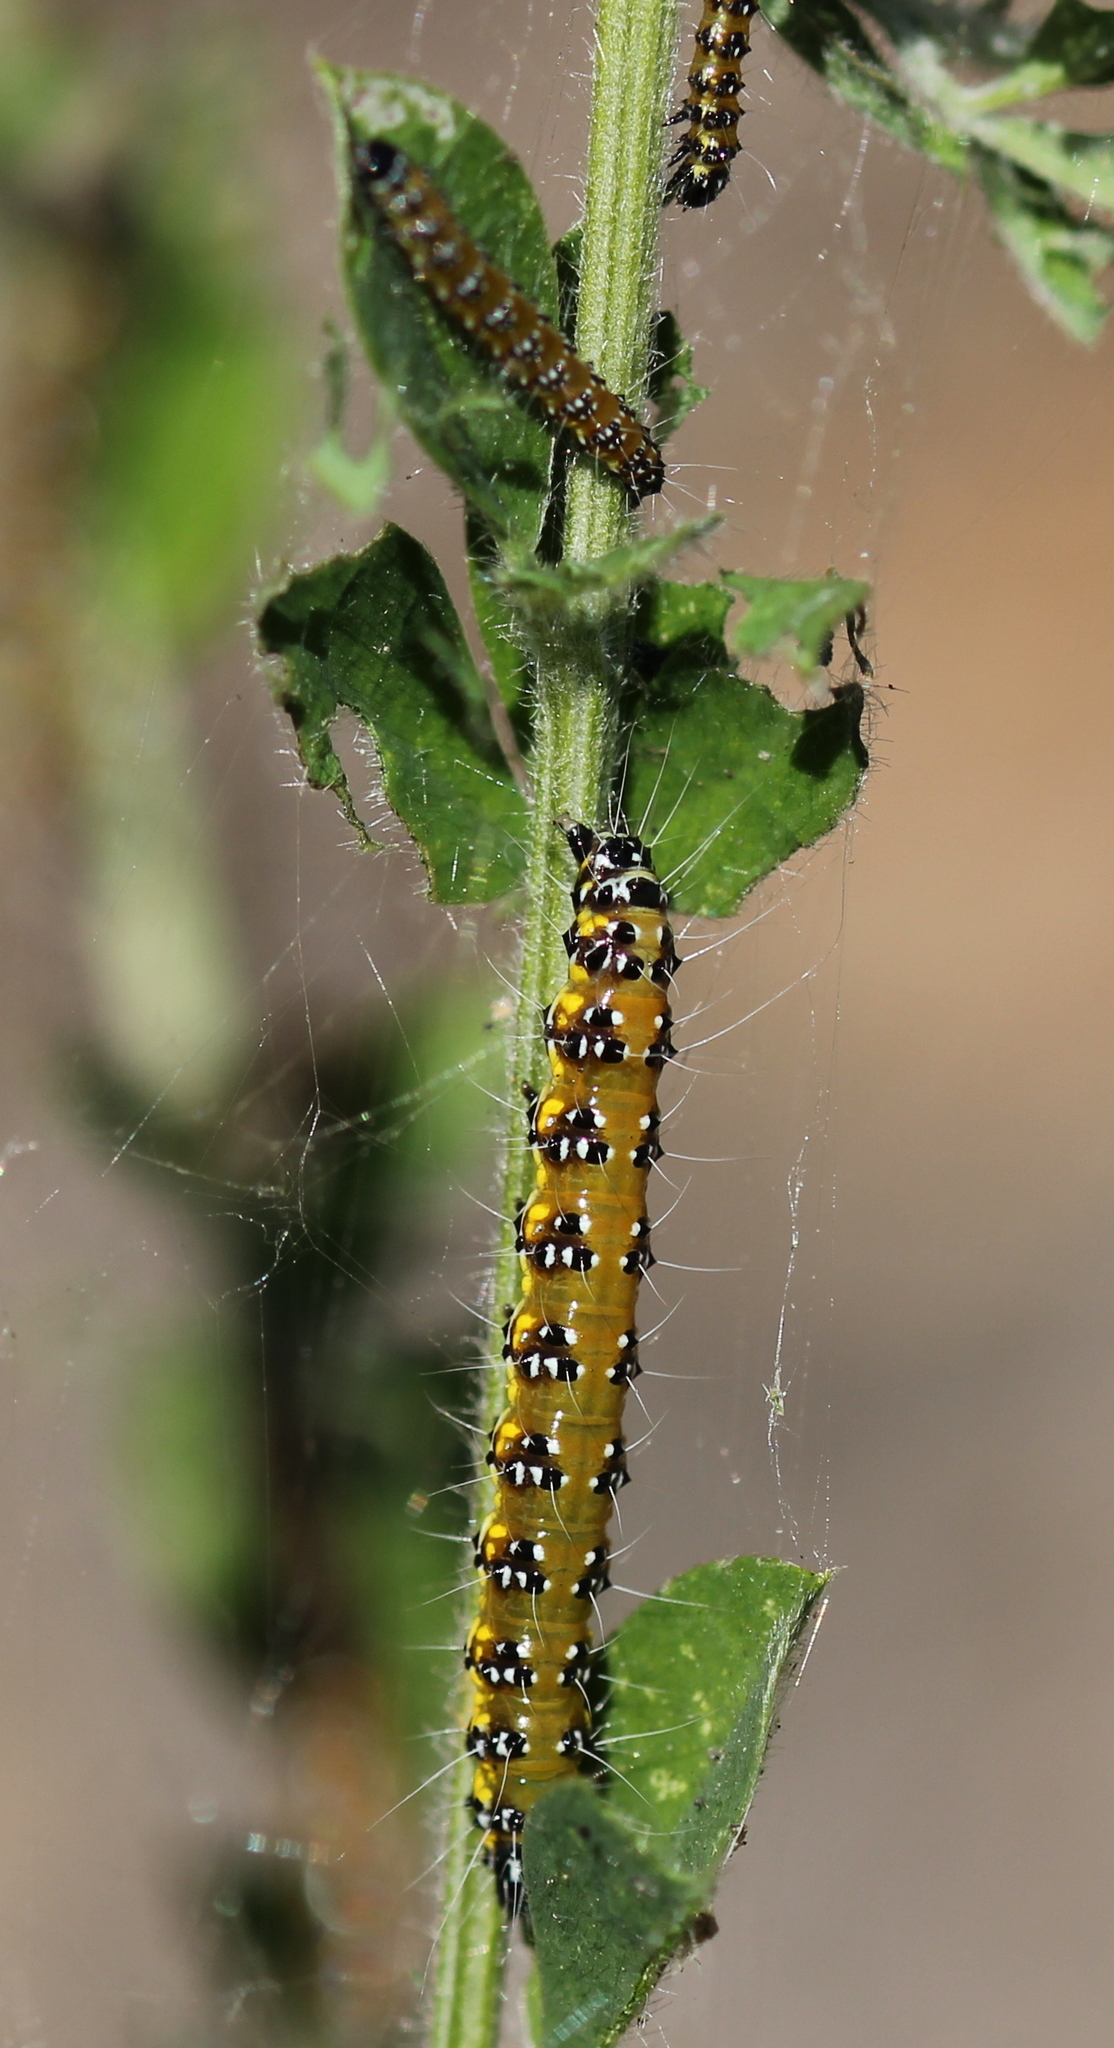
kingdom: Animalia
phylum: Arthropoda
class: Insecta
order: Lepidoptera
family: Crambidae
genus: Uresiphita
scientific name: Uresiphita reversalis
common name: Genista broom moth
